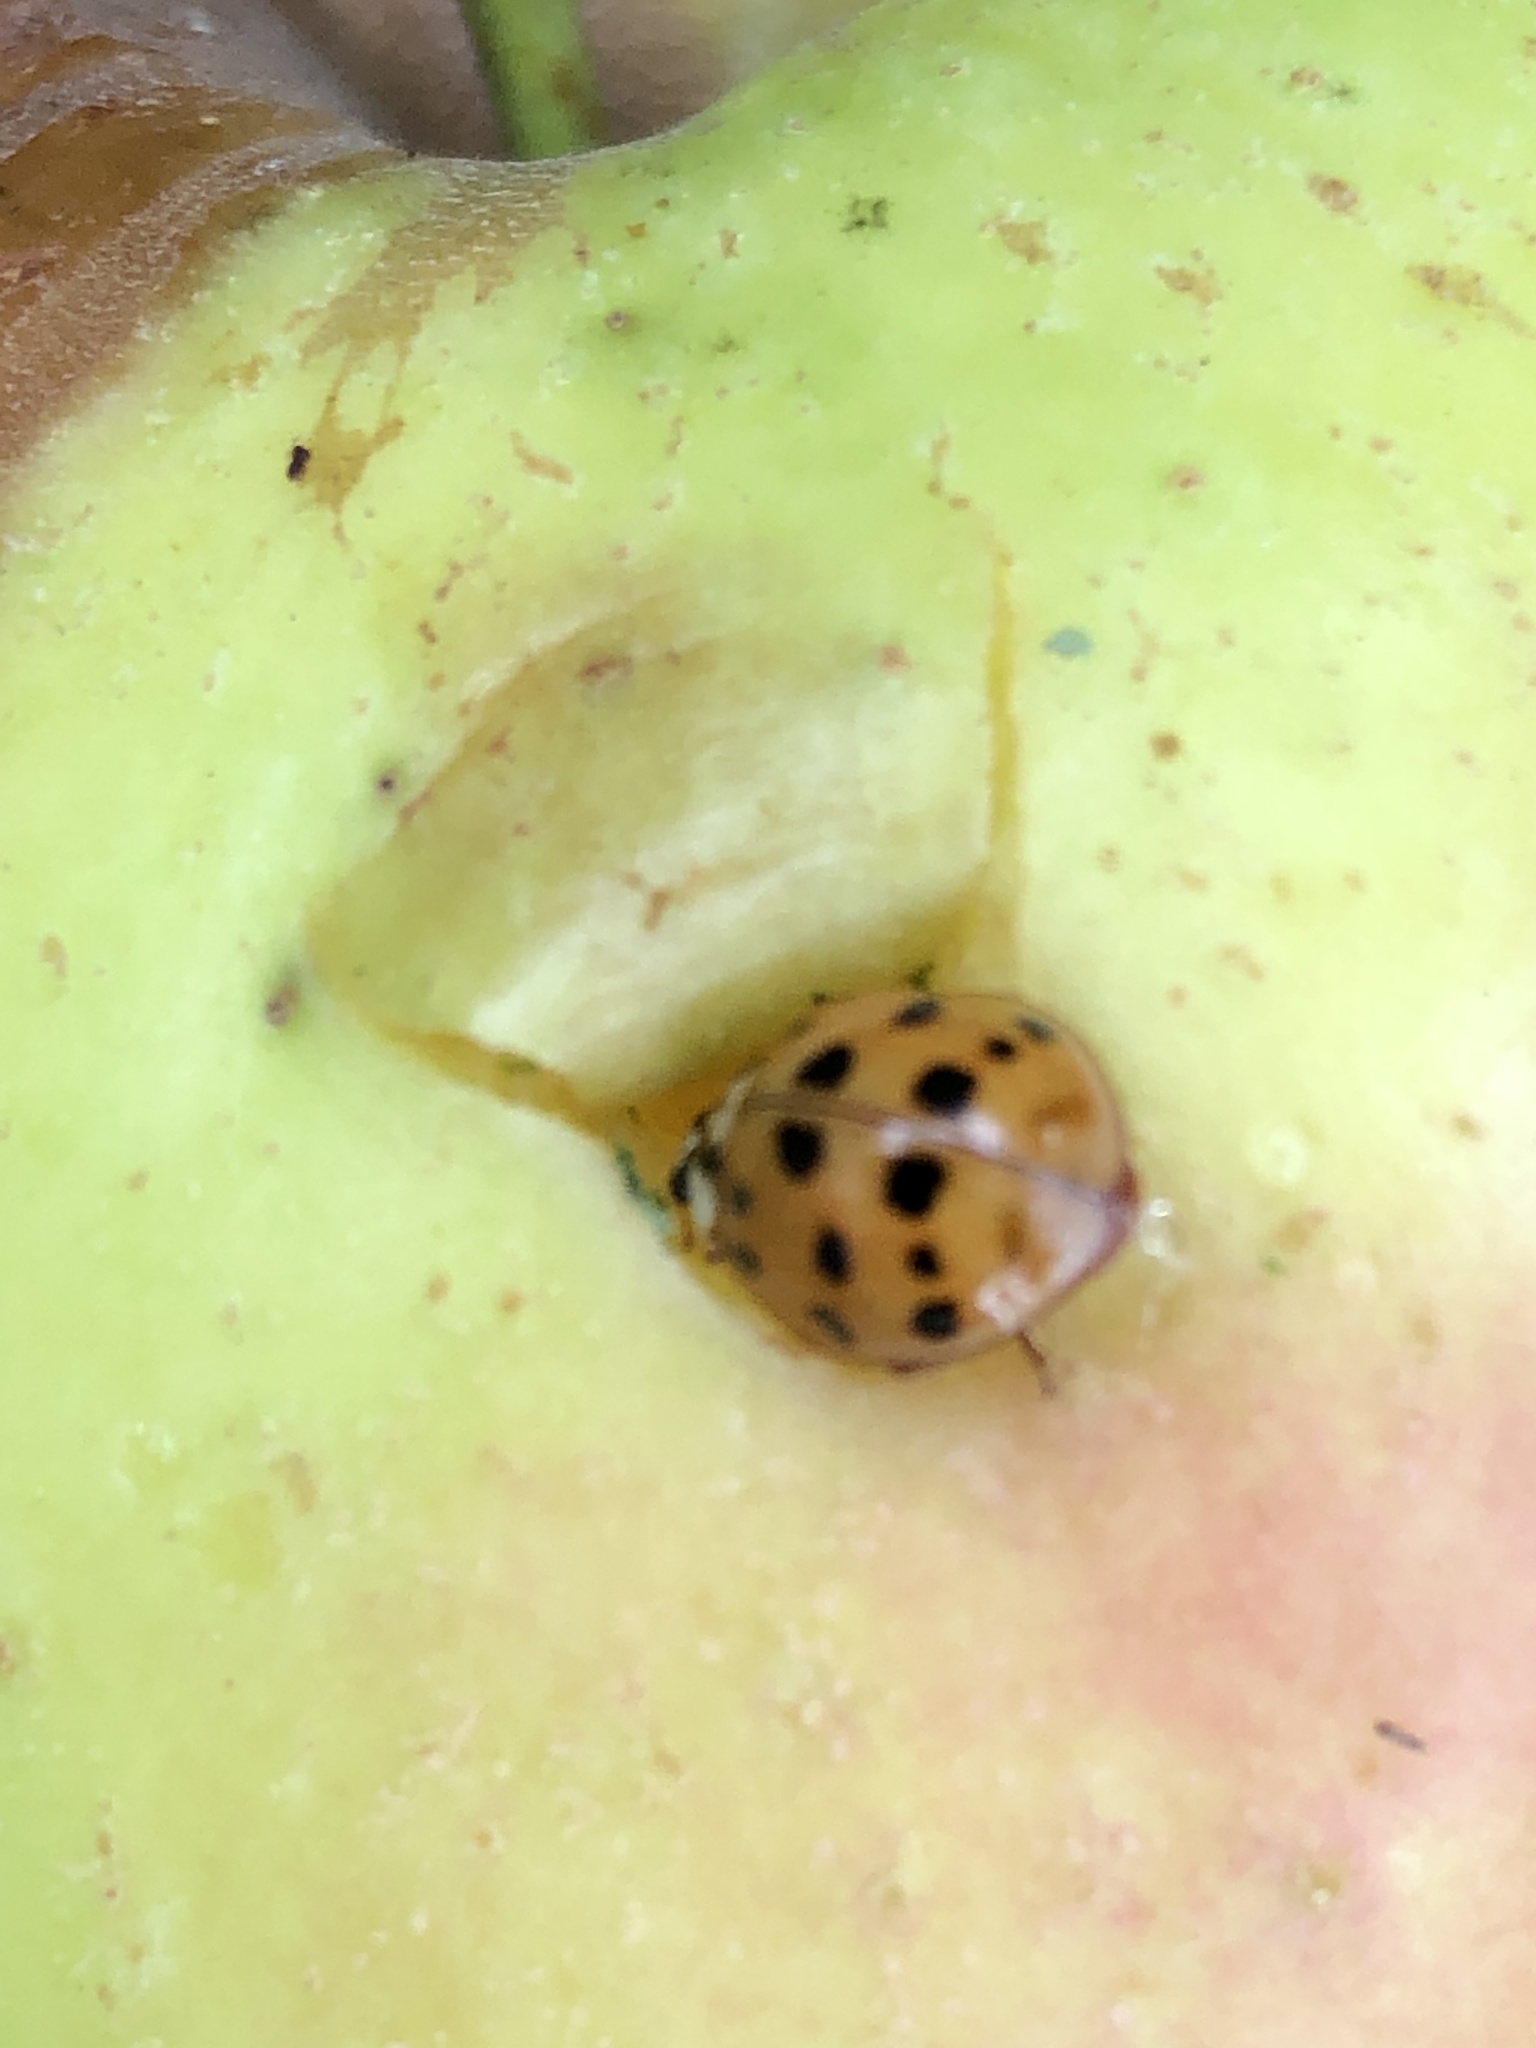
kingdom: Animalia
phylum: Arthropoda
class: Insecta
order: Coleoptera
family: Coccinellidae
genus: Harmonia
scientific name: Harmonia axyridis
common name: Harlequin ladybird
